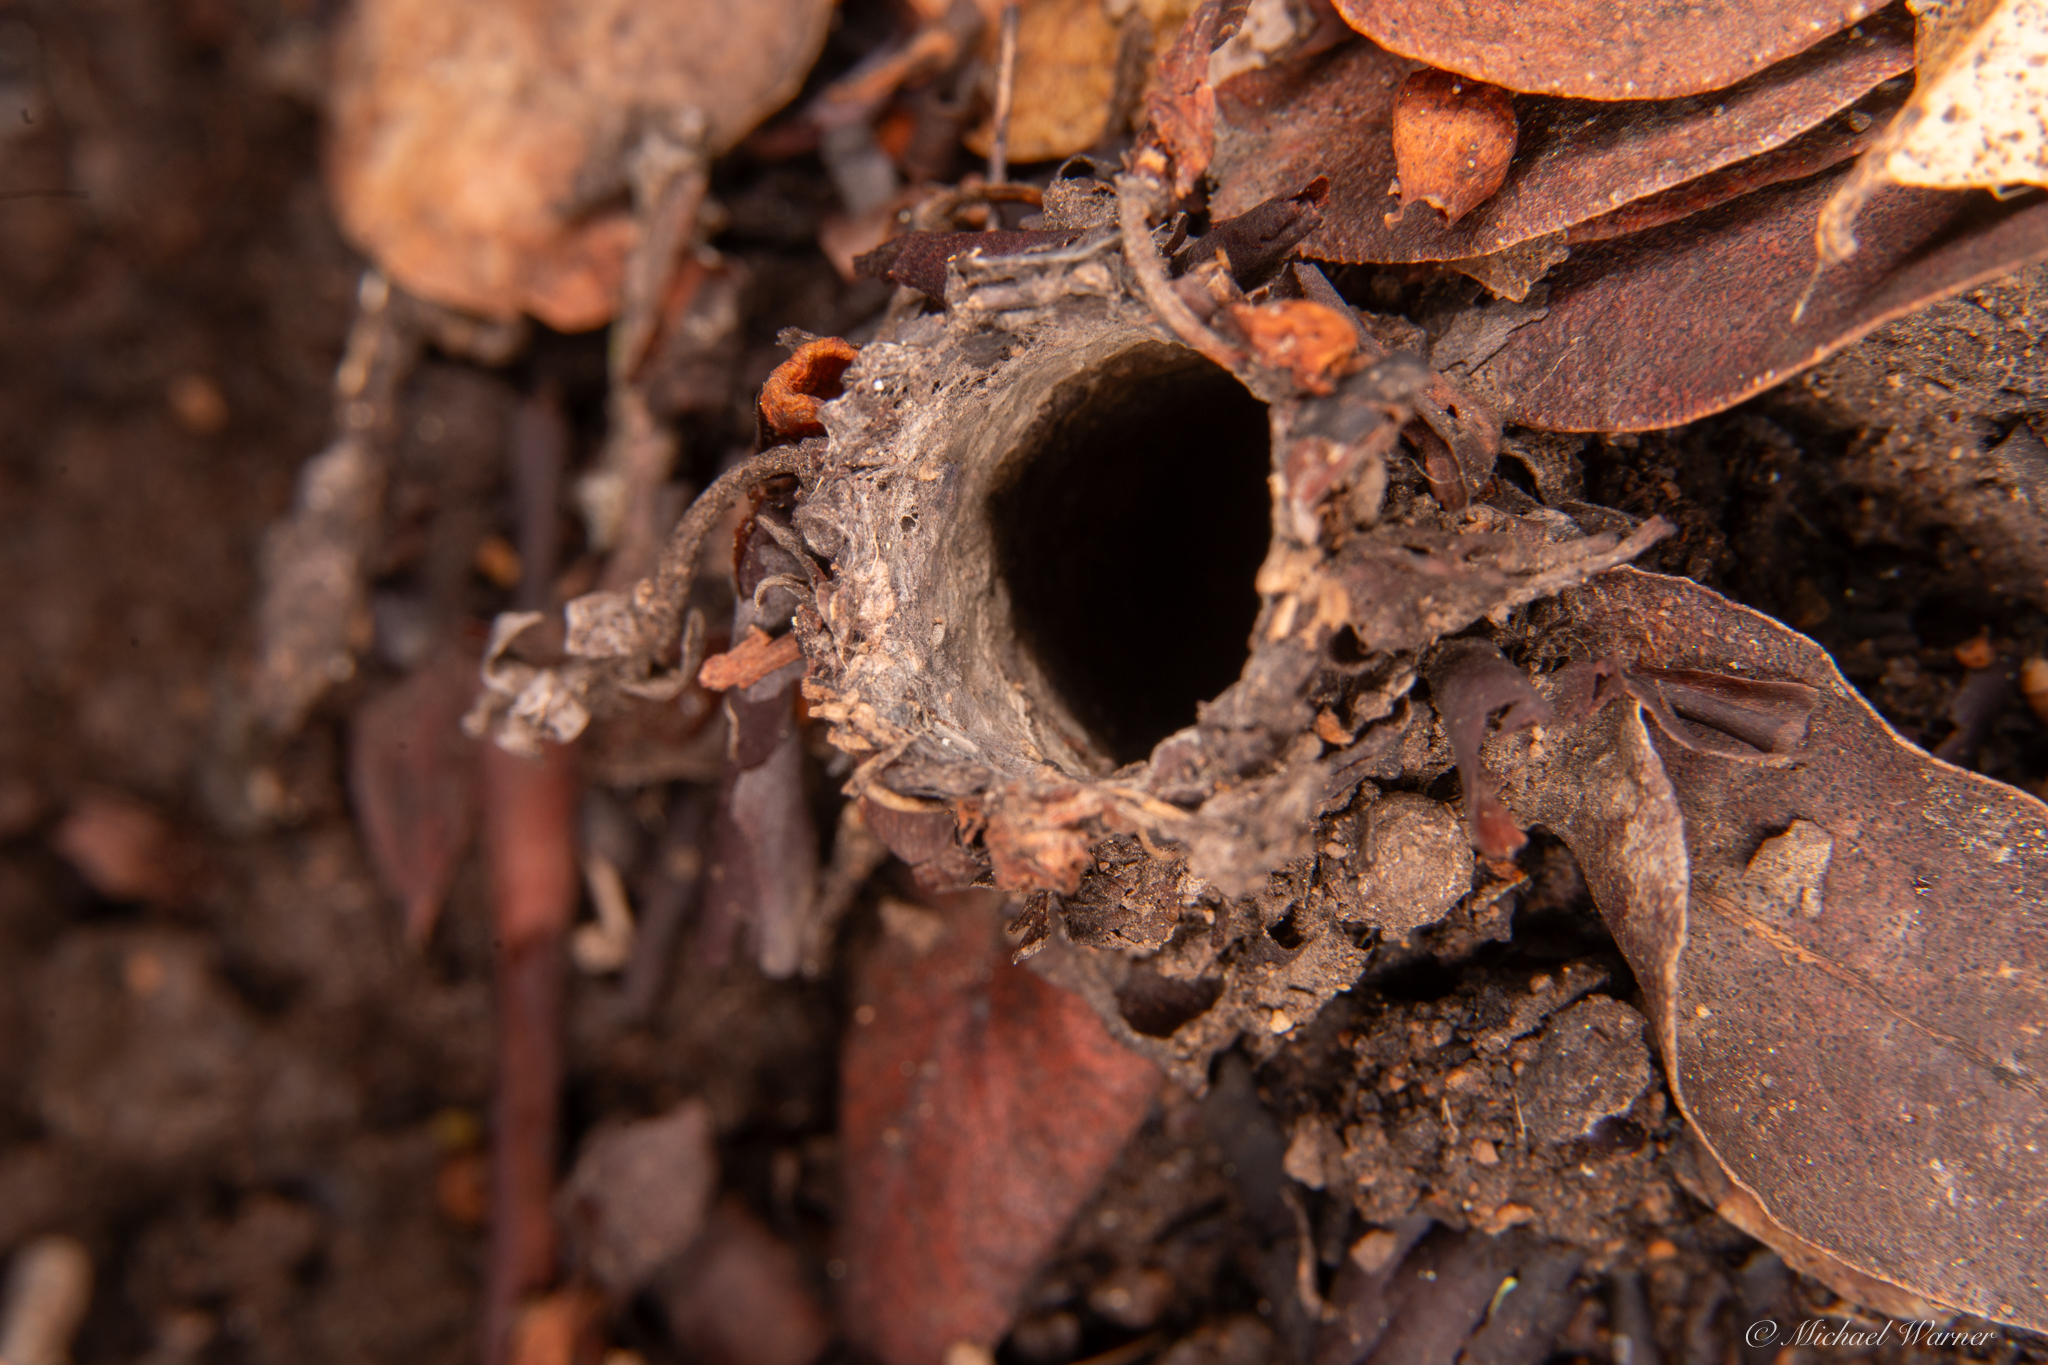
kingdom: Animalia
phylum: Arthropoda
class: Arachnida
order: Araneae
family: Antrodiaetidae
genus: Atypoides
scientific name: Atypoides riversi
